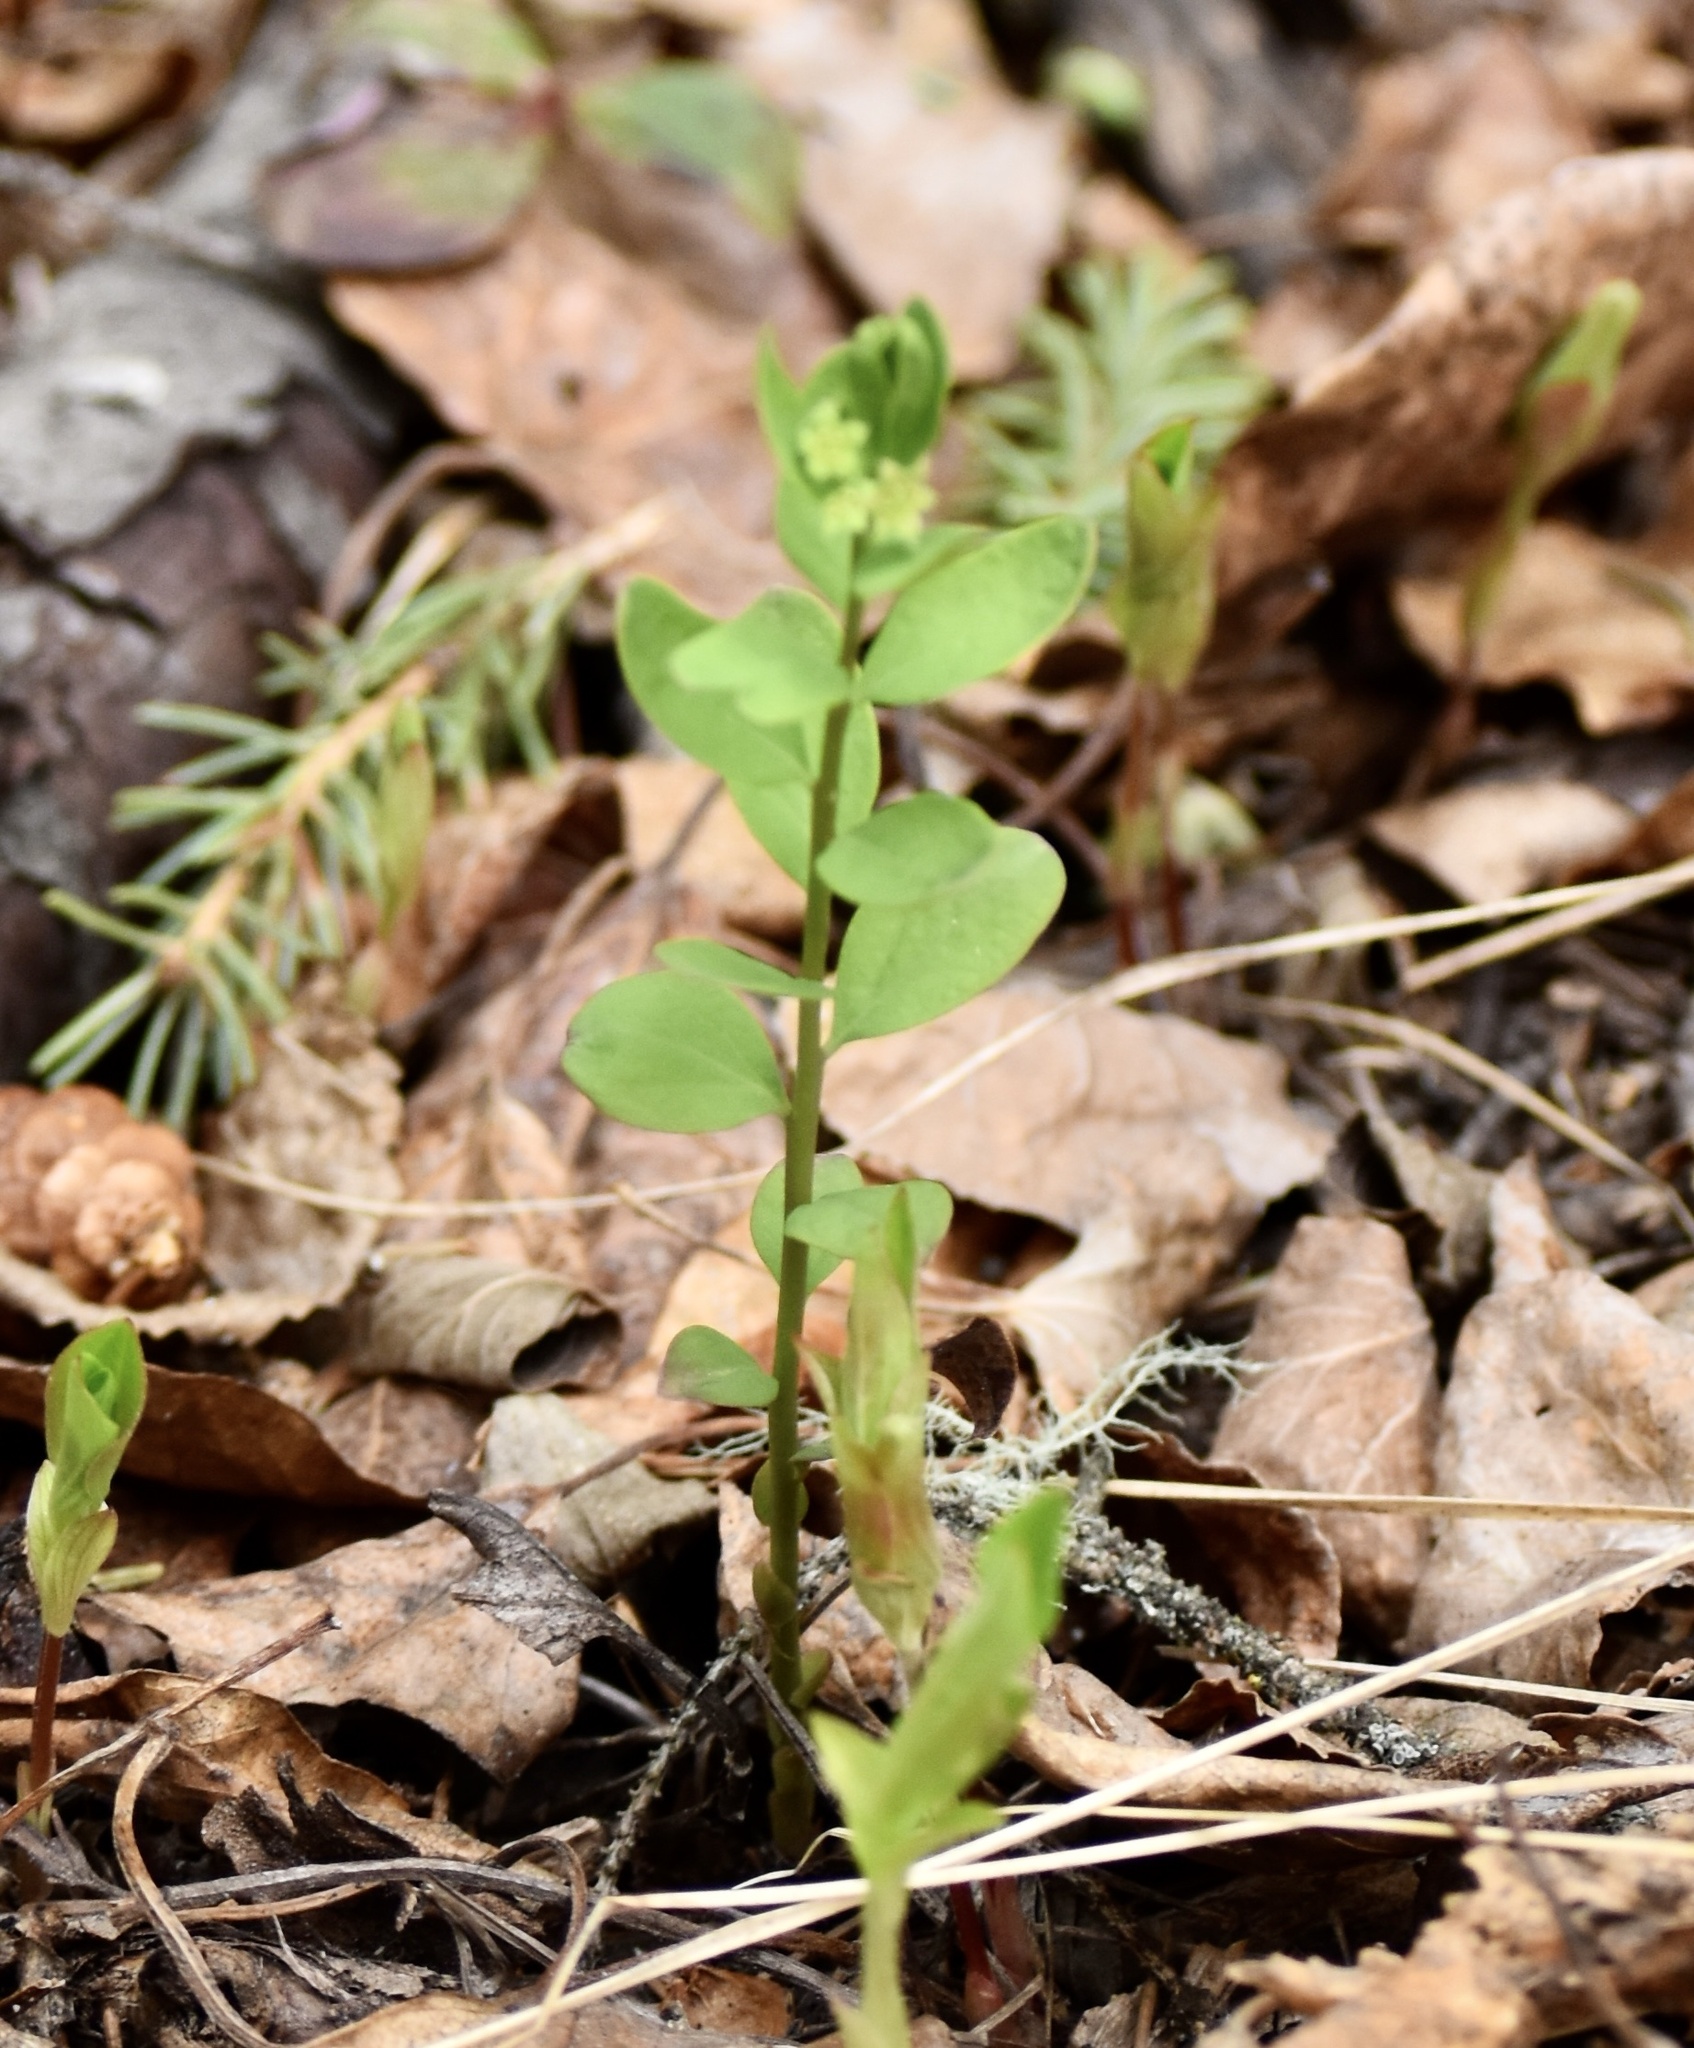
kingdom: Plantae
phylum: Tracheophyta
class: Magnoliopsida
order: Santalales
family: Comandraceae
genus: Geocaulon
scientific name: Geocaulon lividum
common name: Earthberry
